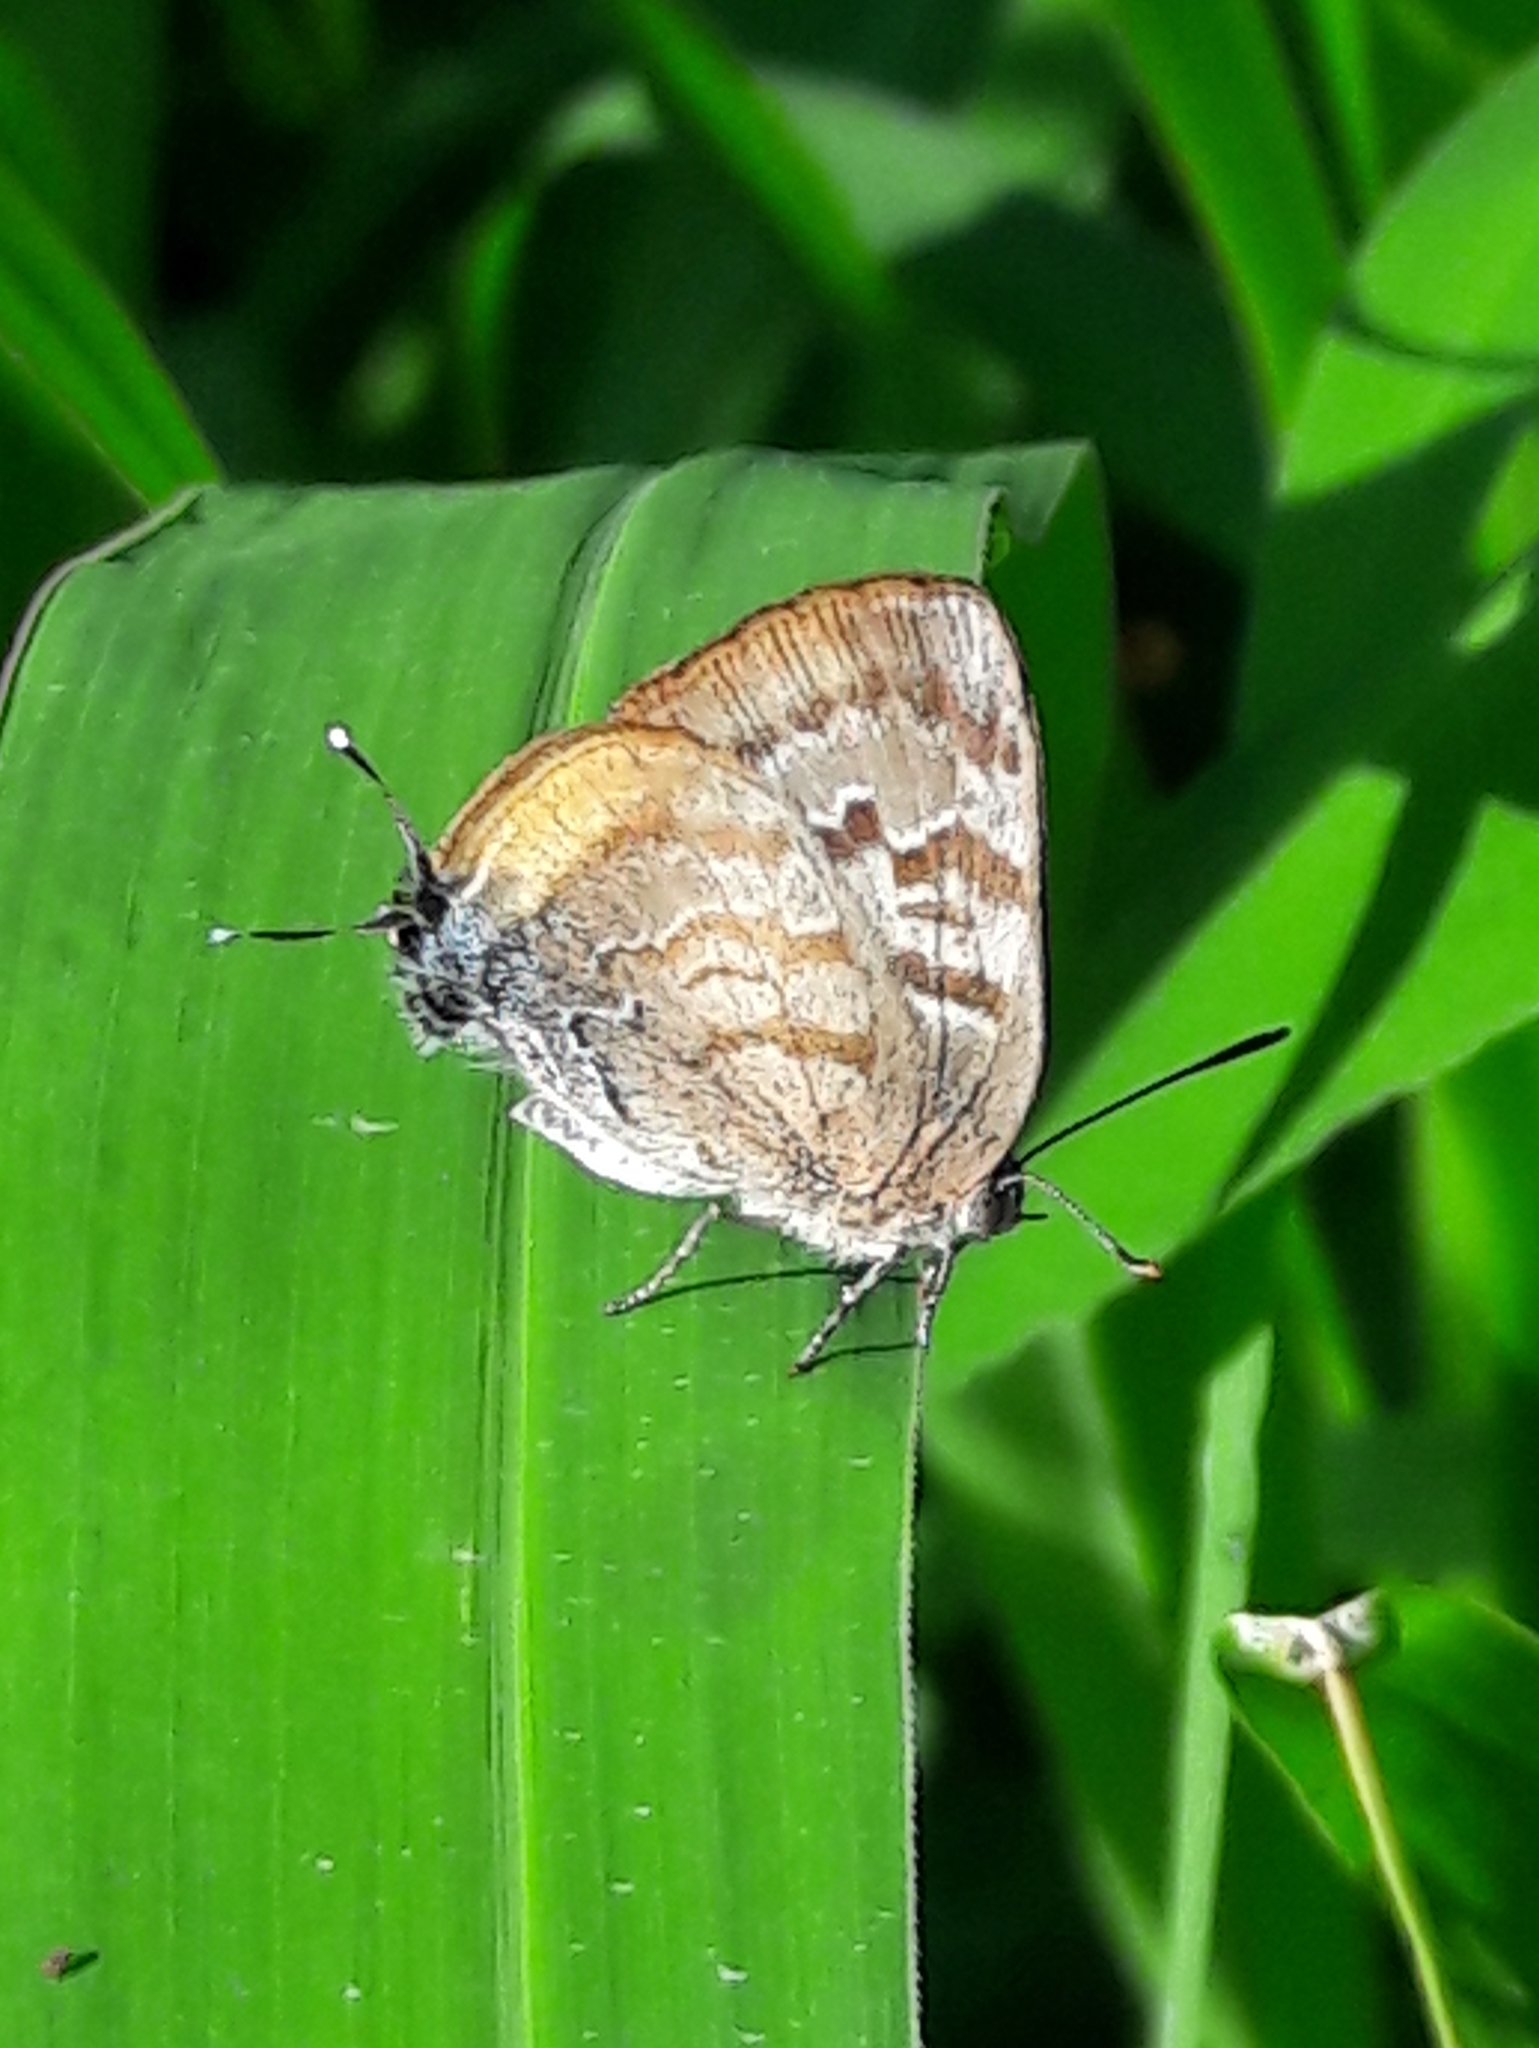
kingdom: Animalia
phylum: Arthropoda
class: Insecta
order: Lepidoptera
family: Lycaenidae
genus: Rekoa
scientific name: Rekoa palegon
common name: Gold-bordered hairstreak
